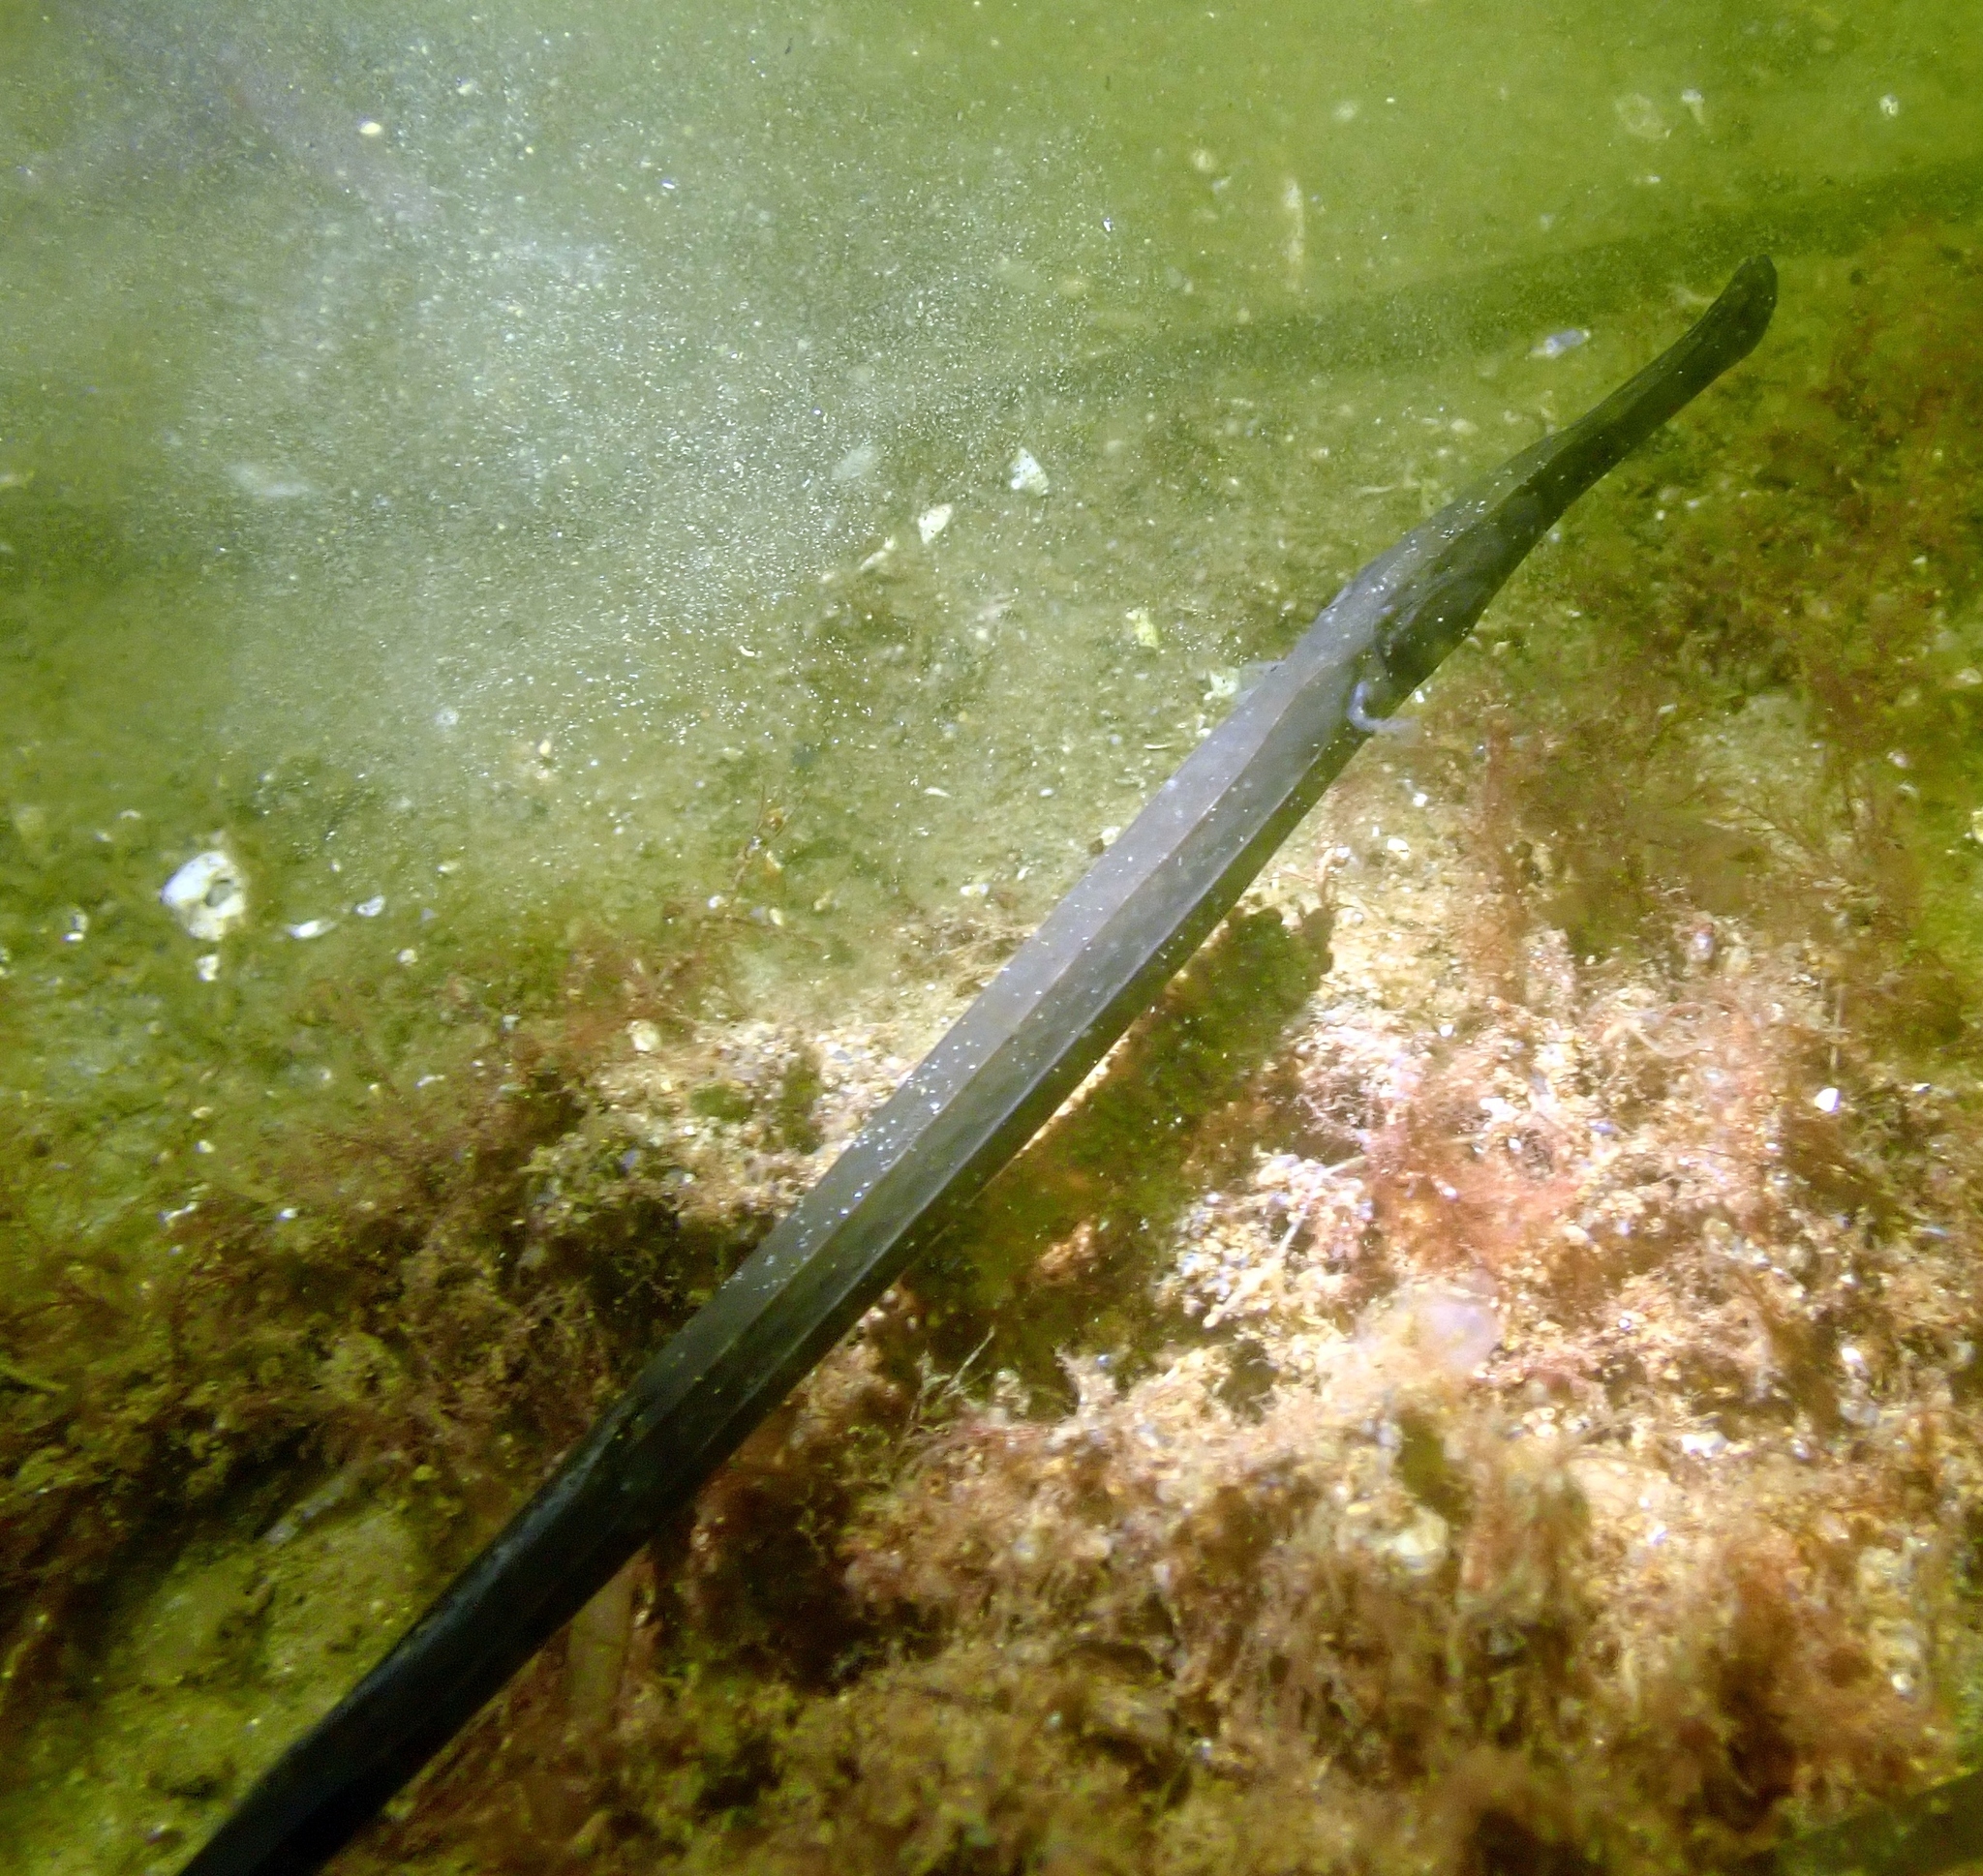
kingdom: Animalia
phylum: Chordata
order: Syngnathiformes
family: Syngnathidae
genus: Syngnathus
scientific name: Syngnathus typhle
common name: Deep-snouted pipefish
